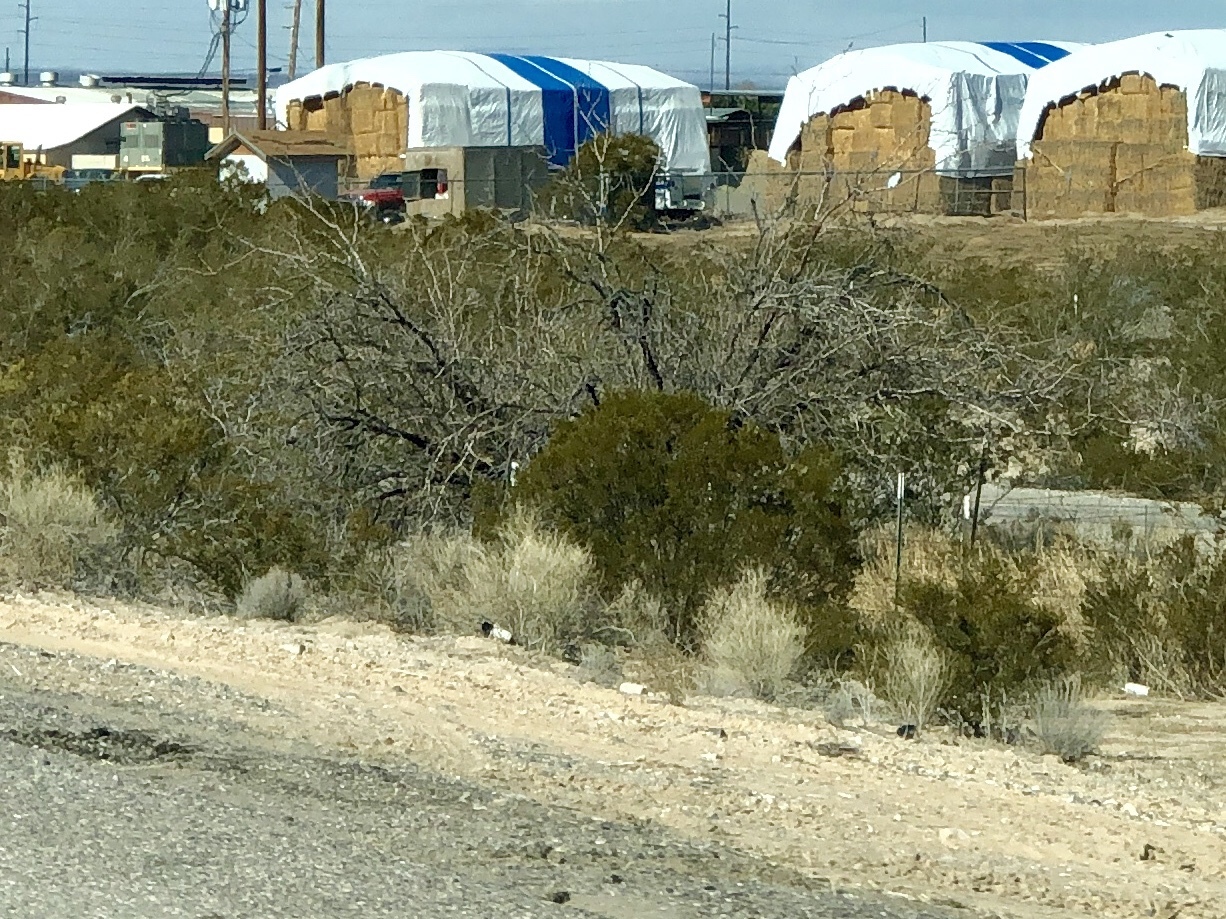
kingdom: Plantae
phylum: Tracheophyta
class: Magnoliopsida
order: Zygophyllales
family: Zygophyllaceae
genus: Larrea
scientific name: Larrea tridentata
